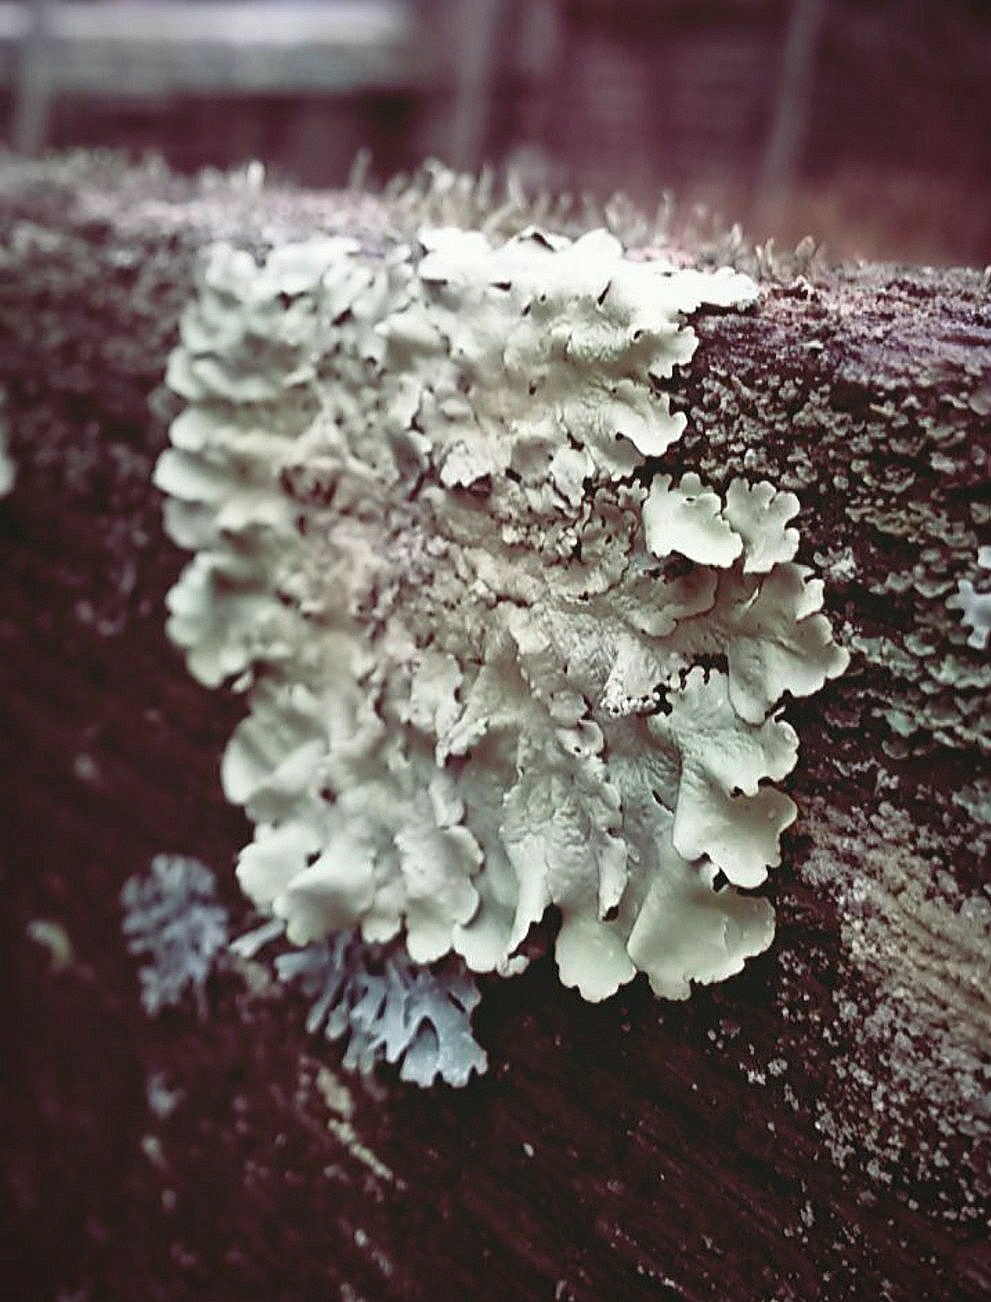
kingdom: Fungi
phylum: Ascomycota
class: Lecanoromycetes
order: Lecanorales
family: Parmeliaceae
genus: Flavoparmelia
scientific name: Flavoparmelia caperata
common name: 40-mile per hour lichen
